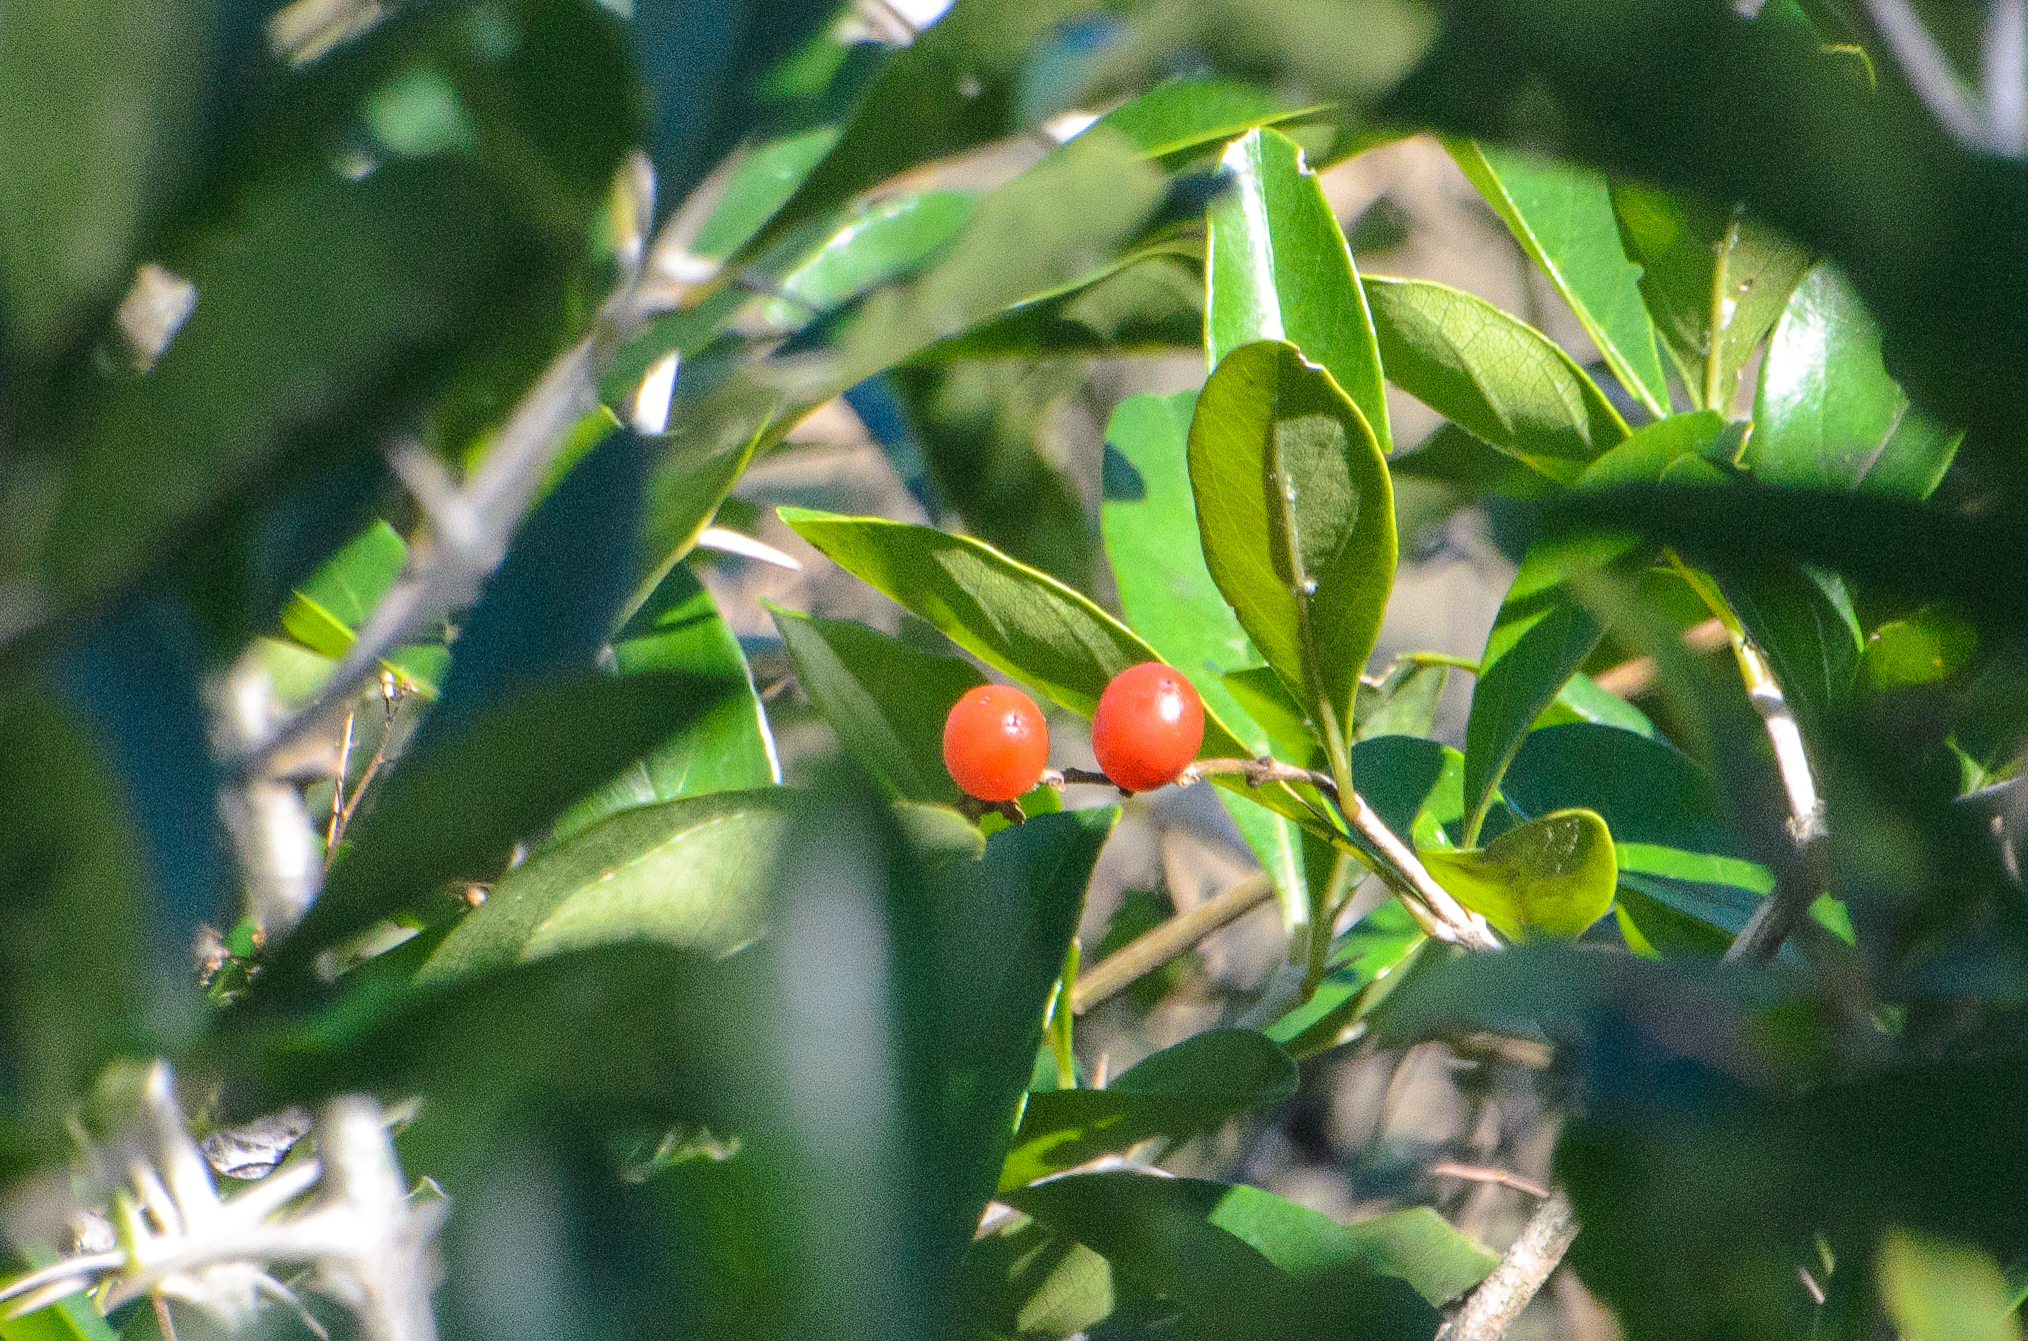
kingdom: Plantae
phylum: Tracheophyta
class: Magnoliopsida
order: Lamiales
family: Verbenaceae
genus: Citharexylum
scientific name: Citharexylum montevidense
